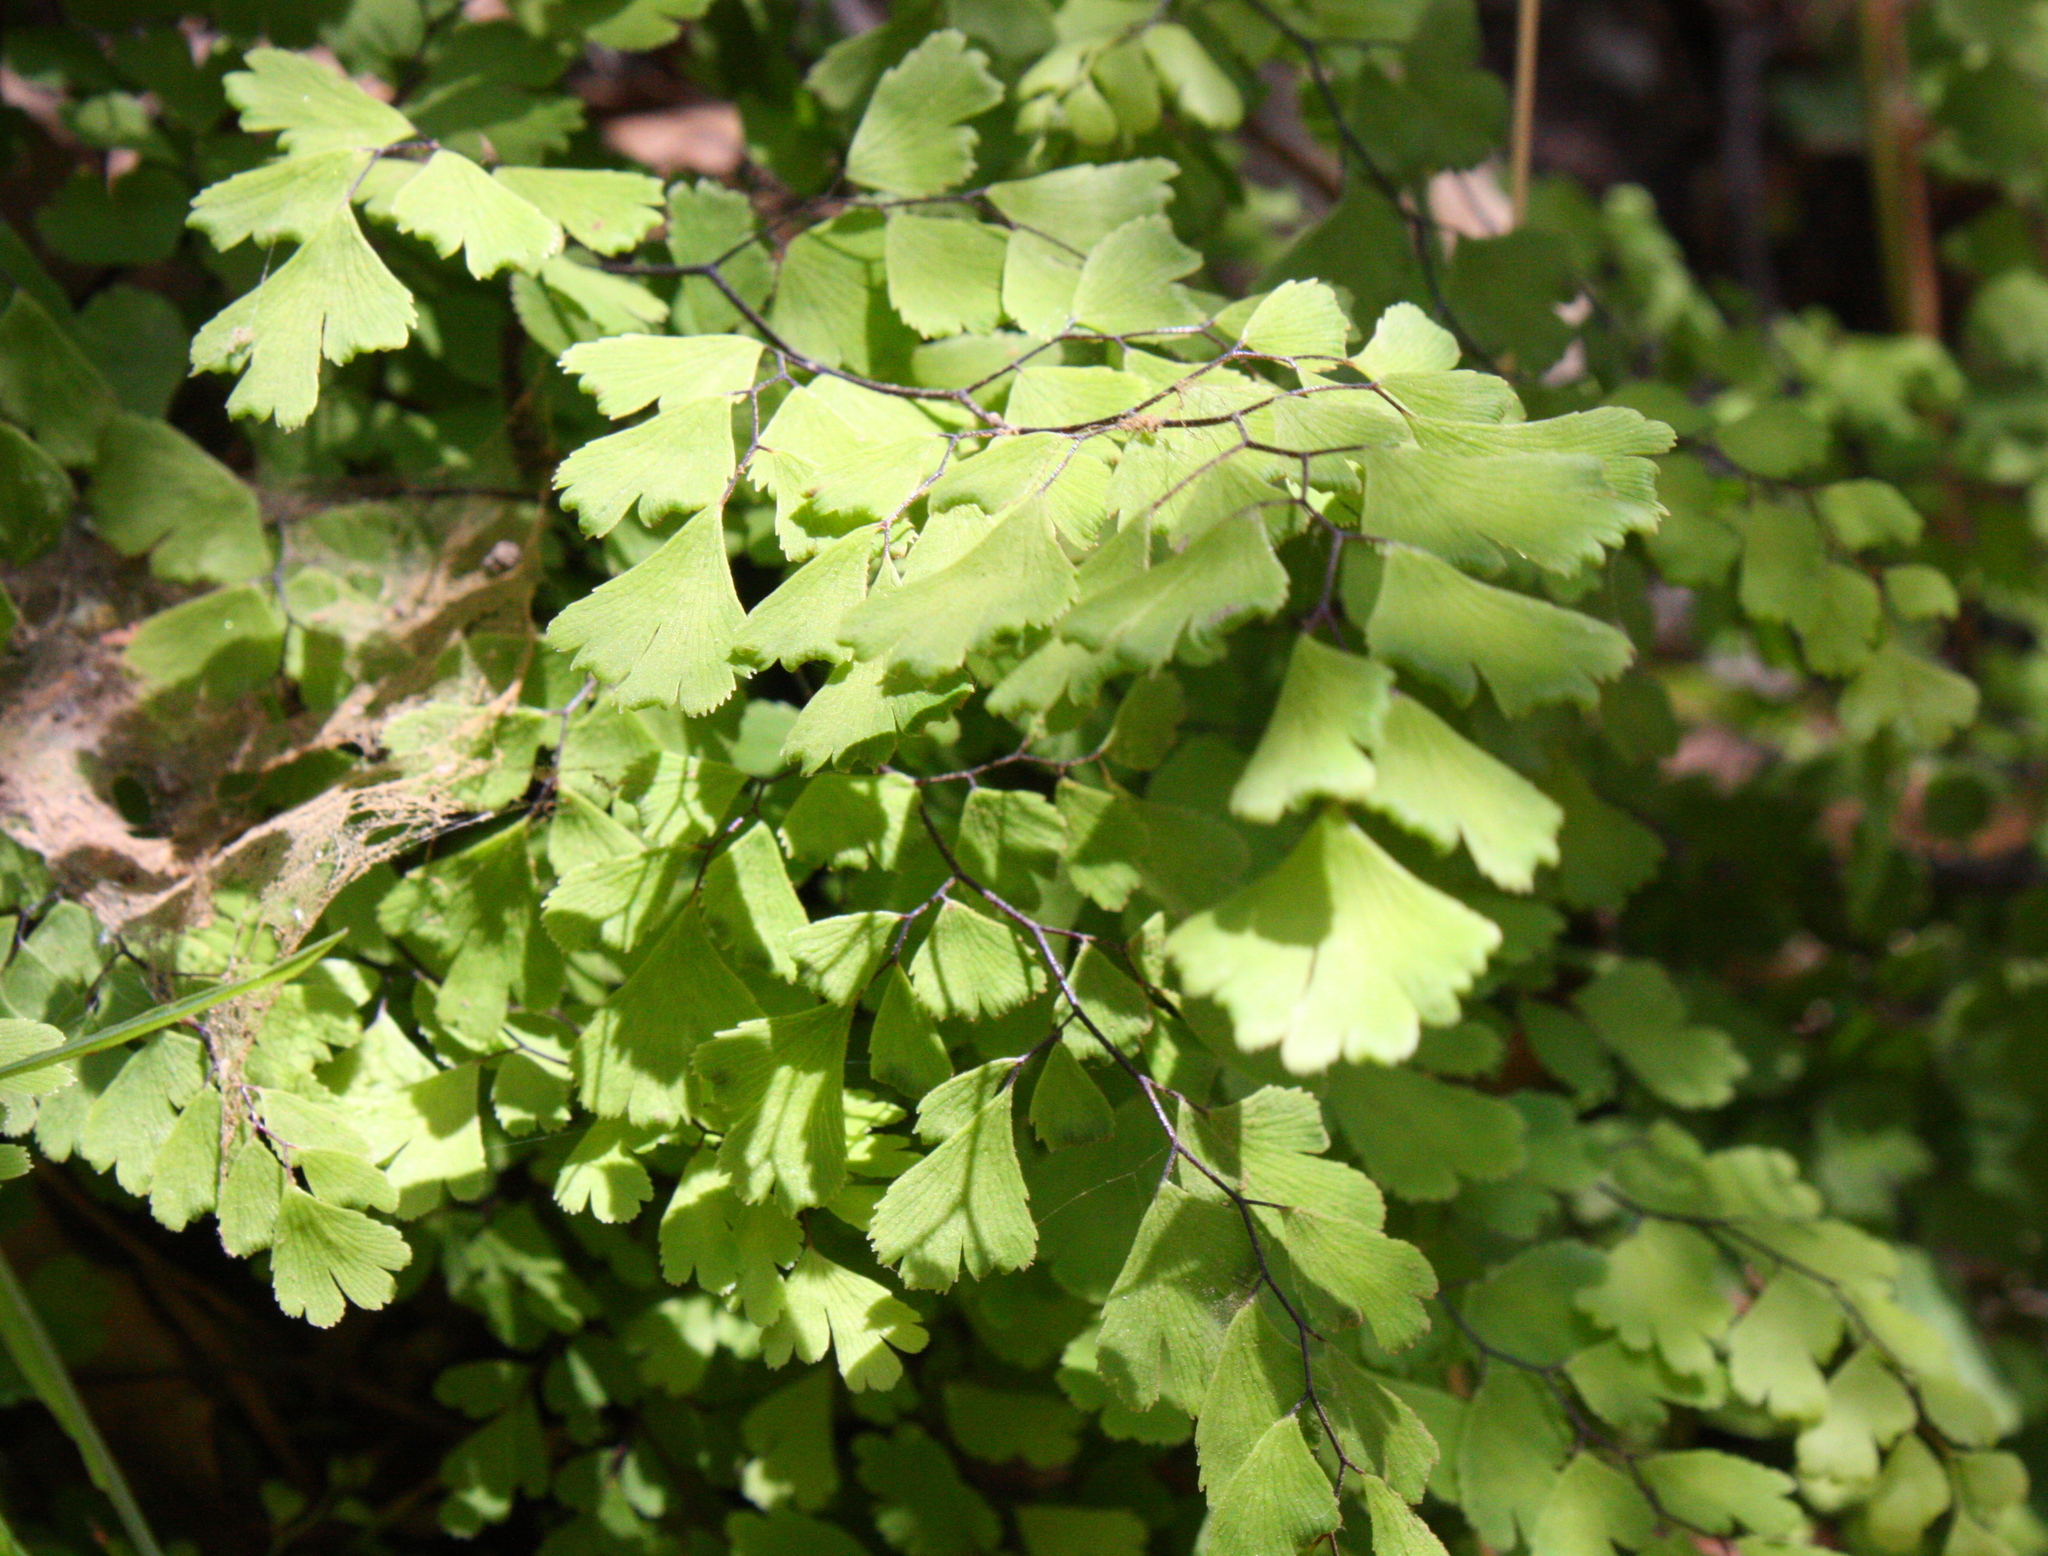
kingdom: Plantae
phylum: Tracheophyta
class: Polypodiopsida
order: Polypodiales
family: Pteridaceae
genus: Adiantum
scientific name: Adiantum jordanii
